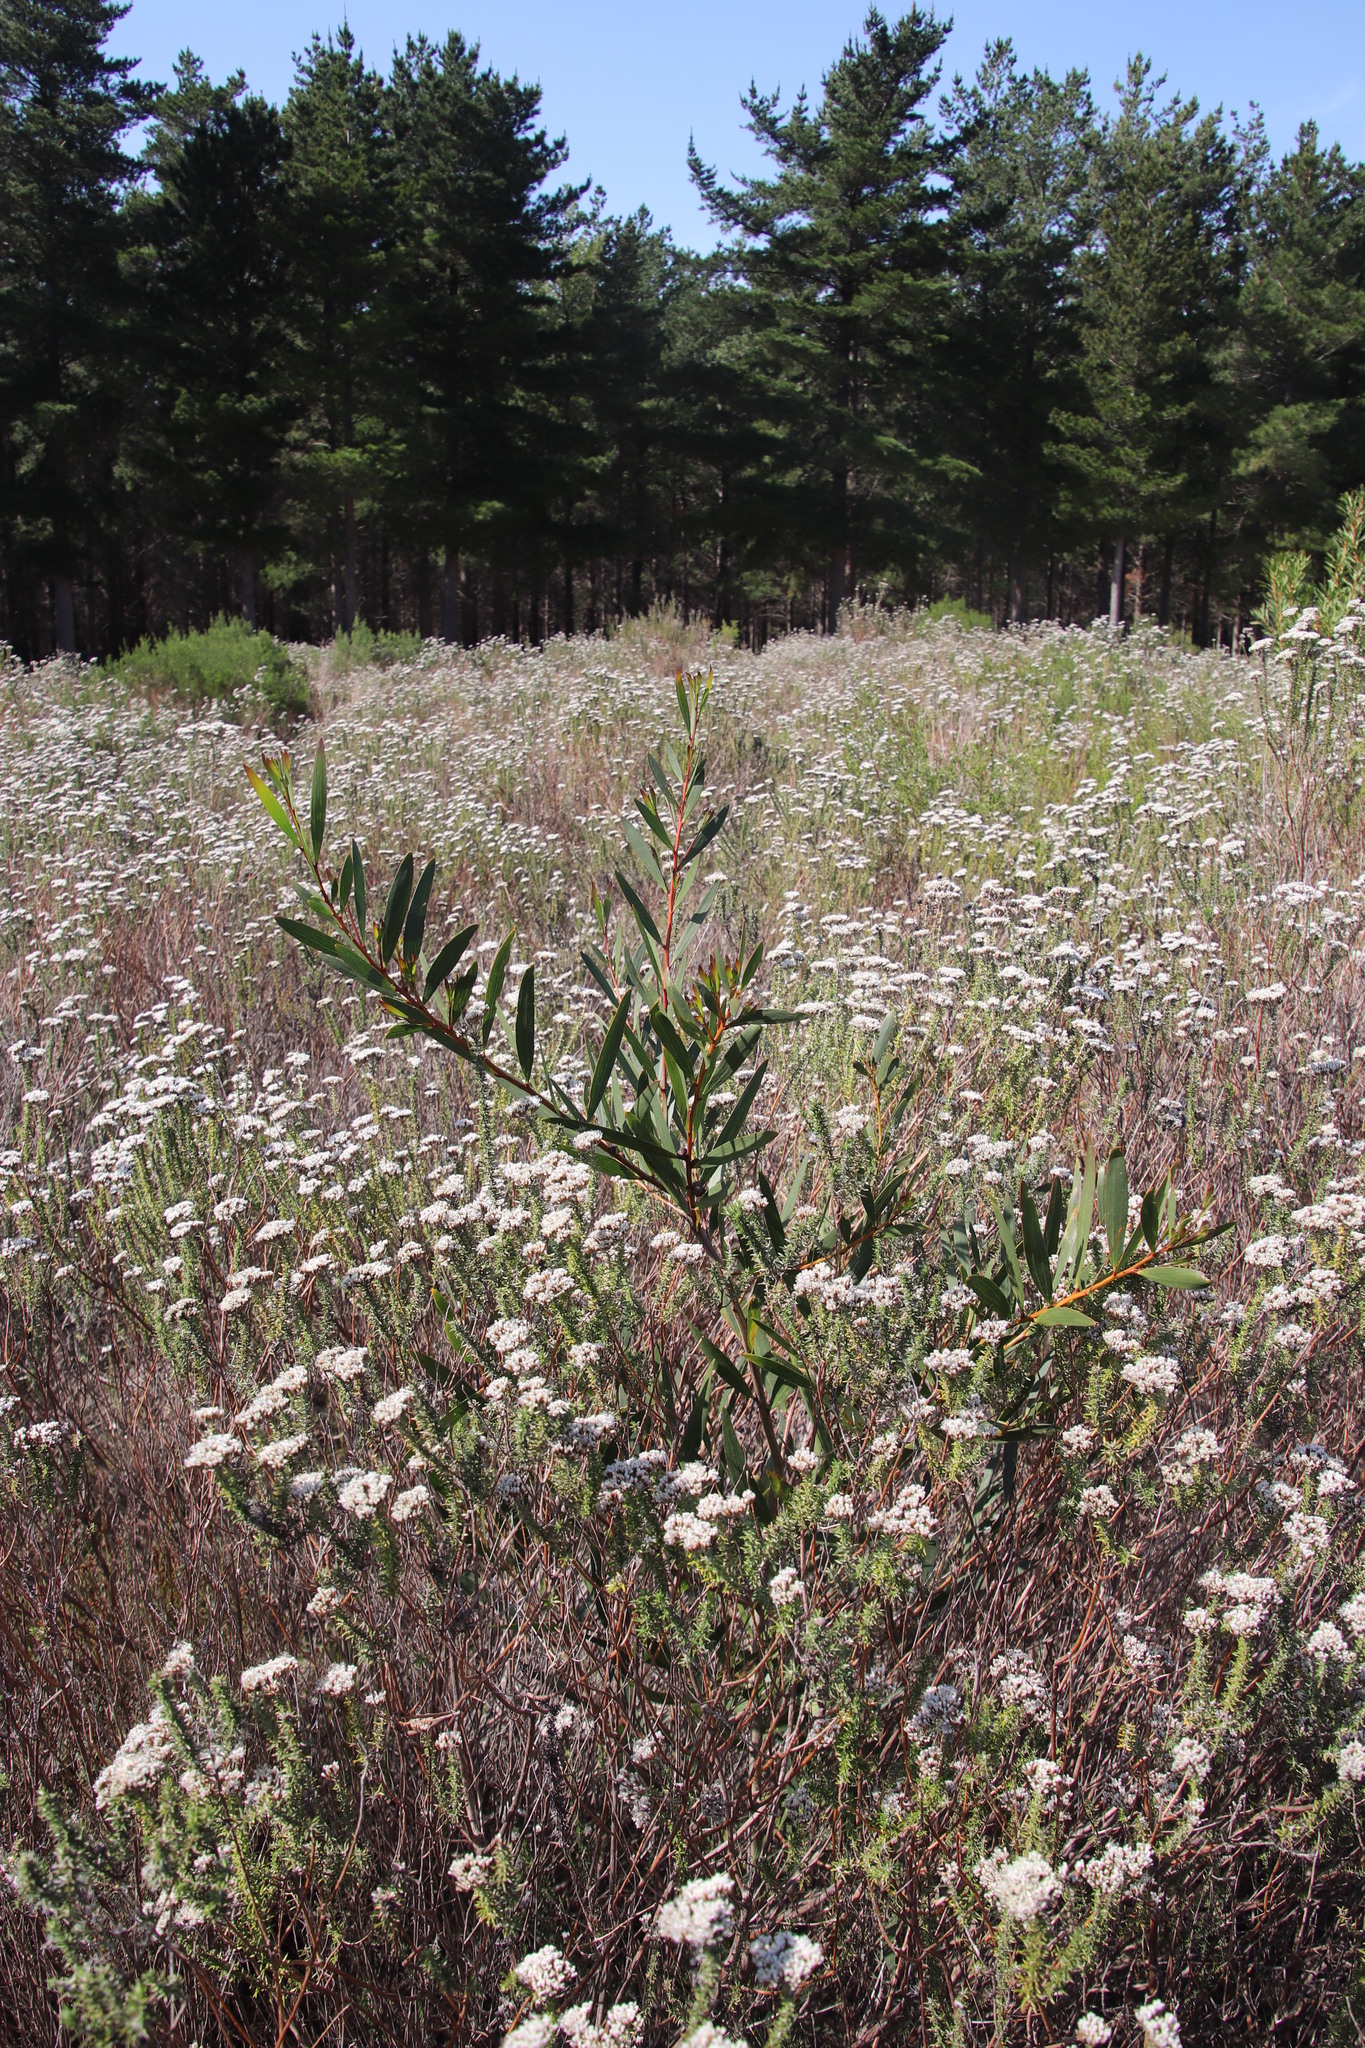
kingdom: Plantae
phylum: Tracheophyta
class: Magnoliopsida
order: Fabales
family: Fabaceae
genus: Acacia
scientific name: Acacia longifolia
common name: Sydney golden wattle
